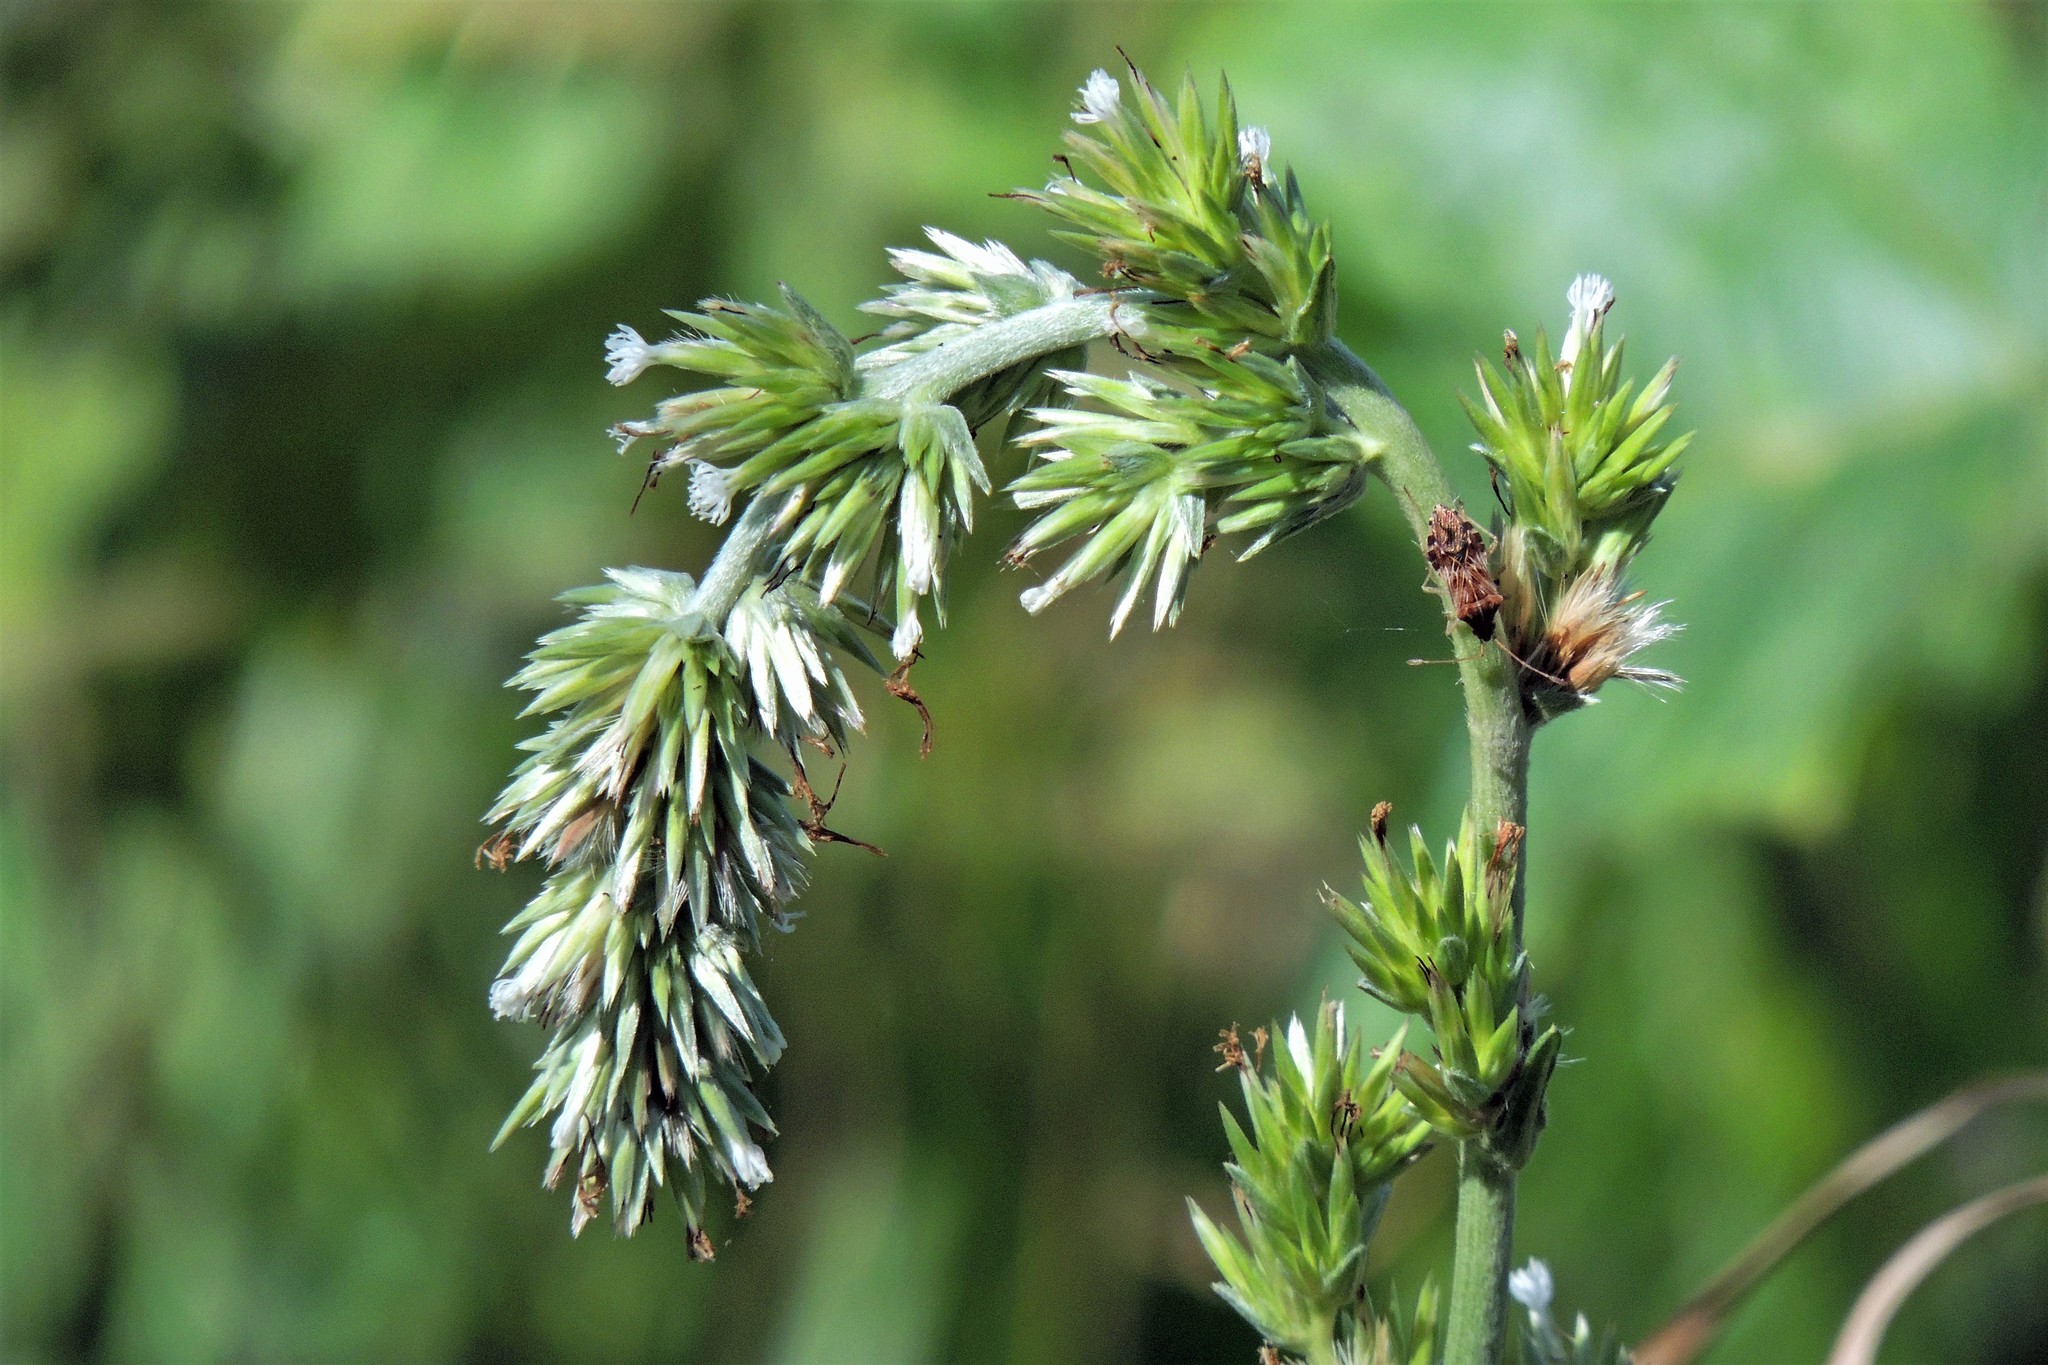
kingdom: Plantae
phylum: Tracheophyta
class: Magnoliopsida
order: Asterales
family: Asteraceae
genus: Orthopappus
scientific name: Orthopappus angustifolius
